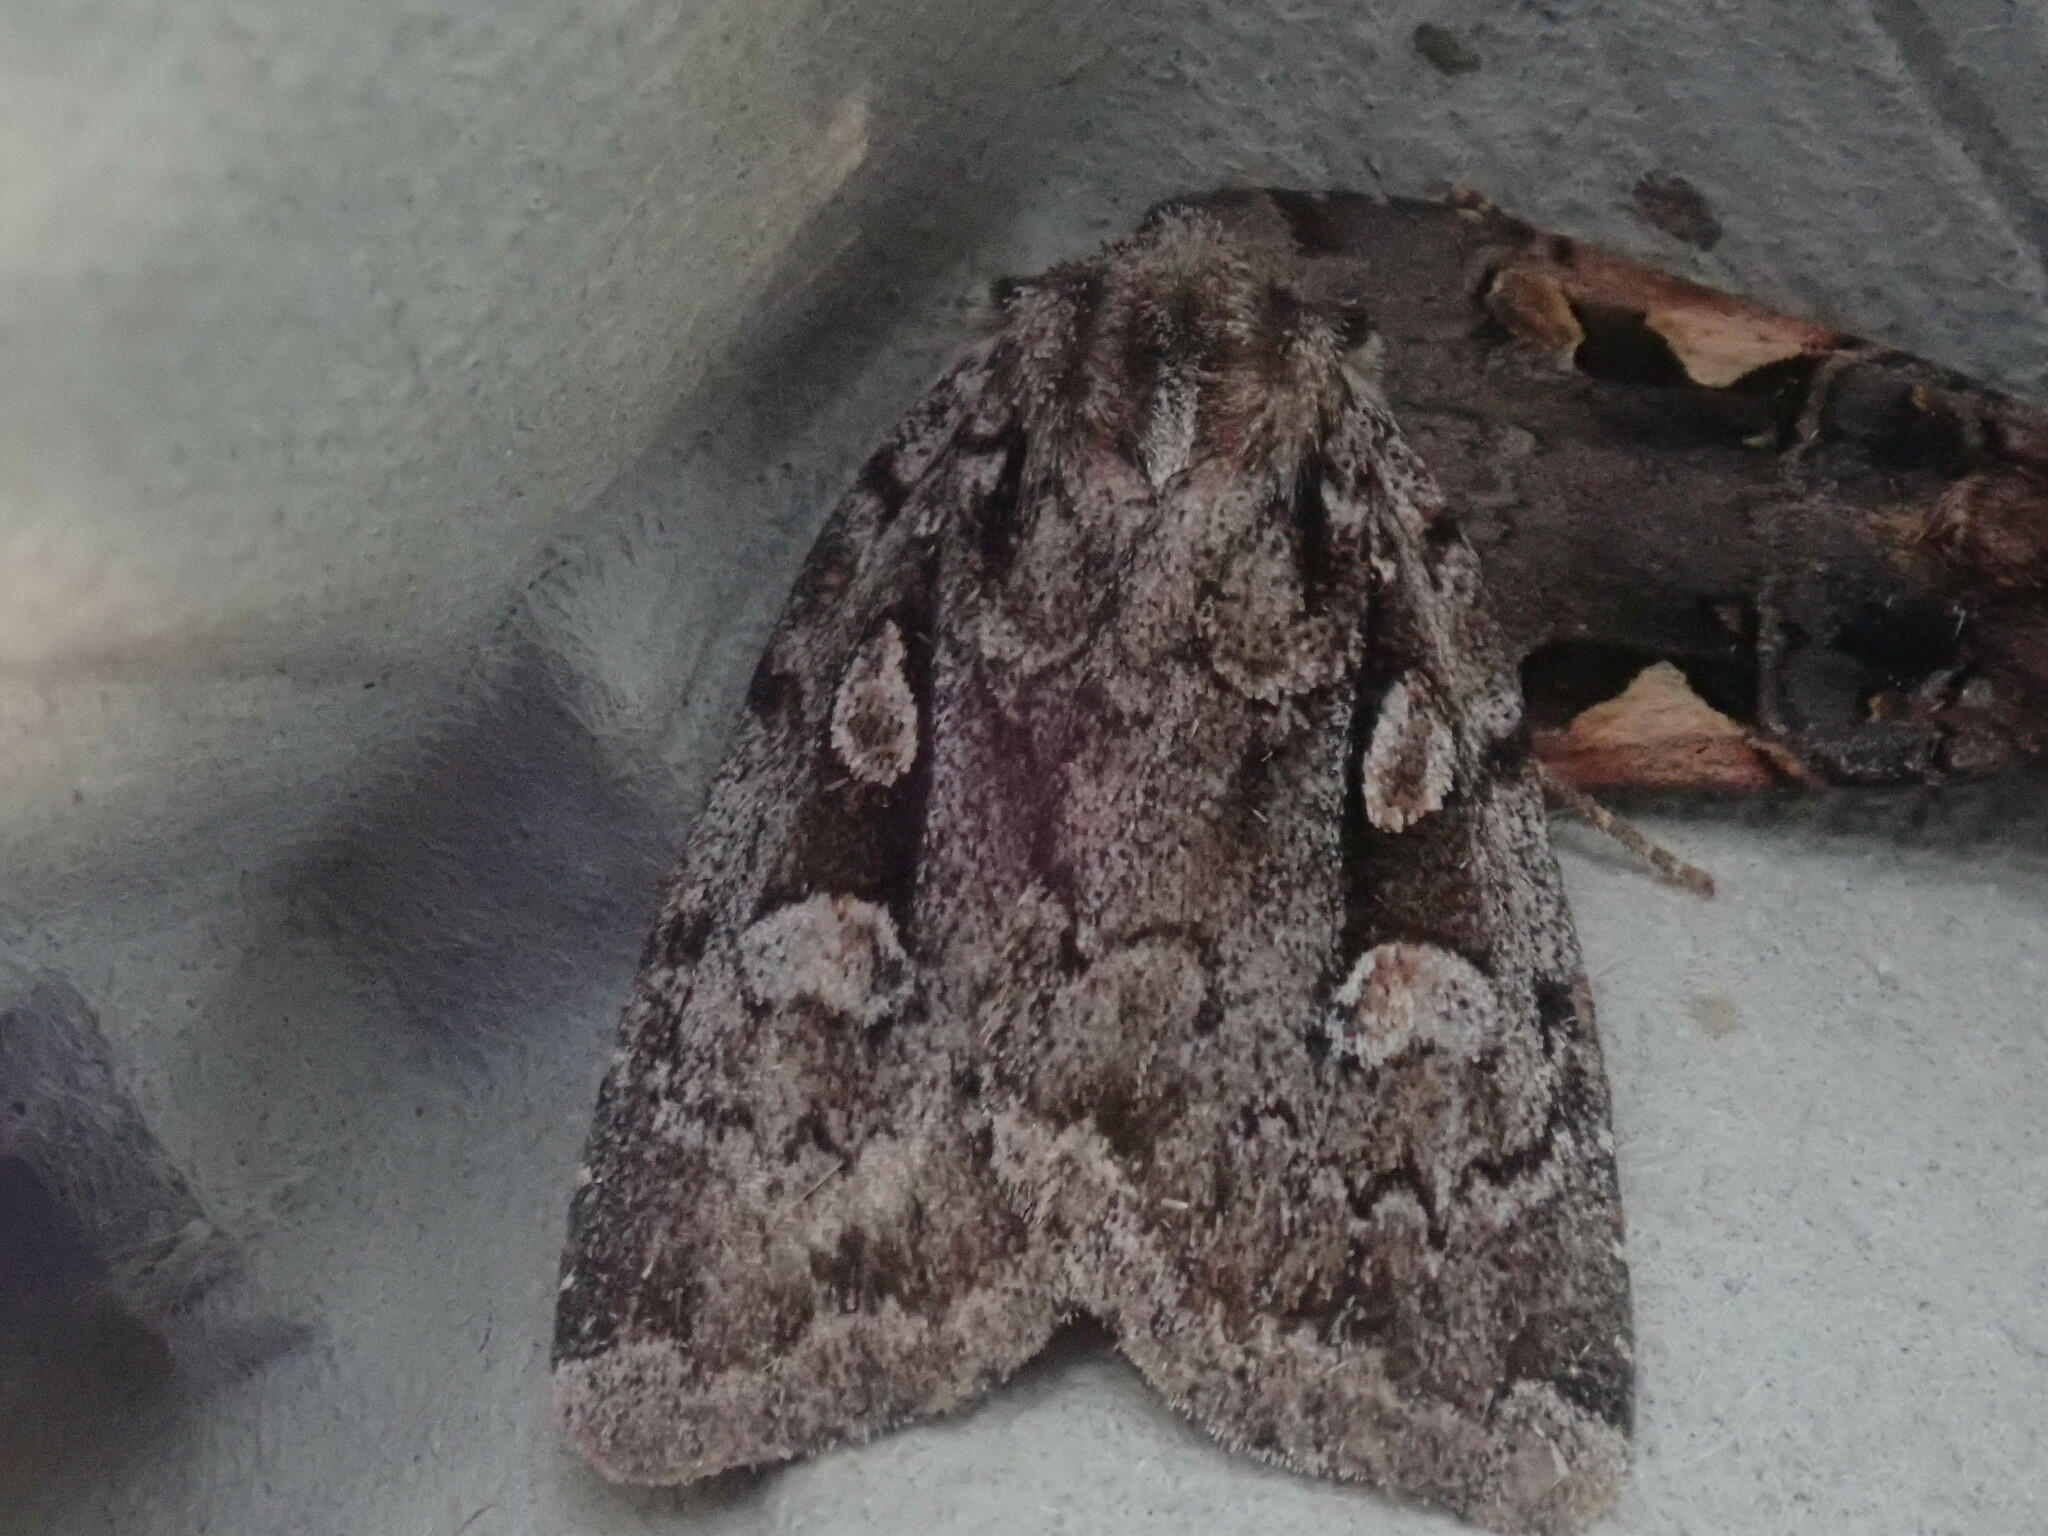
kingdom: Animalia
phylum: Arthropoda
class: Insecta
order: Lepidoptera
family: Noctuidae
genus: Xestia
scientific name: Xestia badicollis
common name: Northern variable dart
